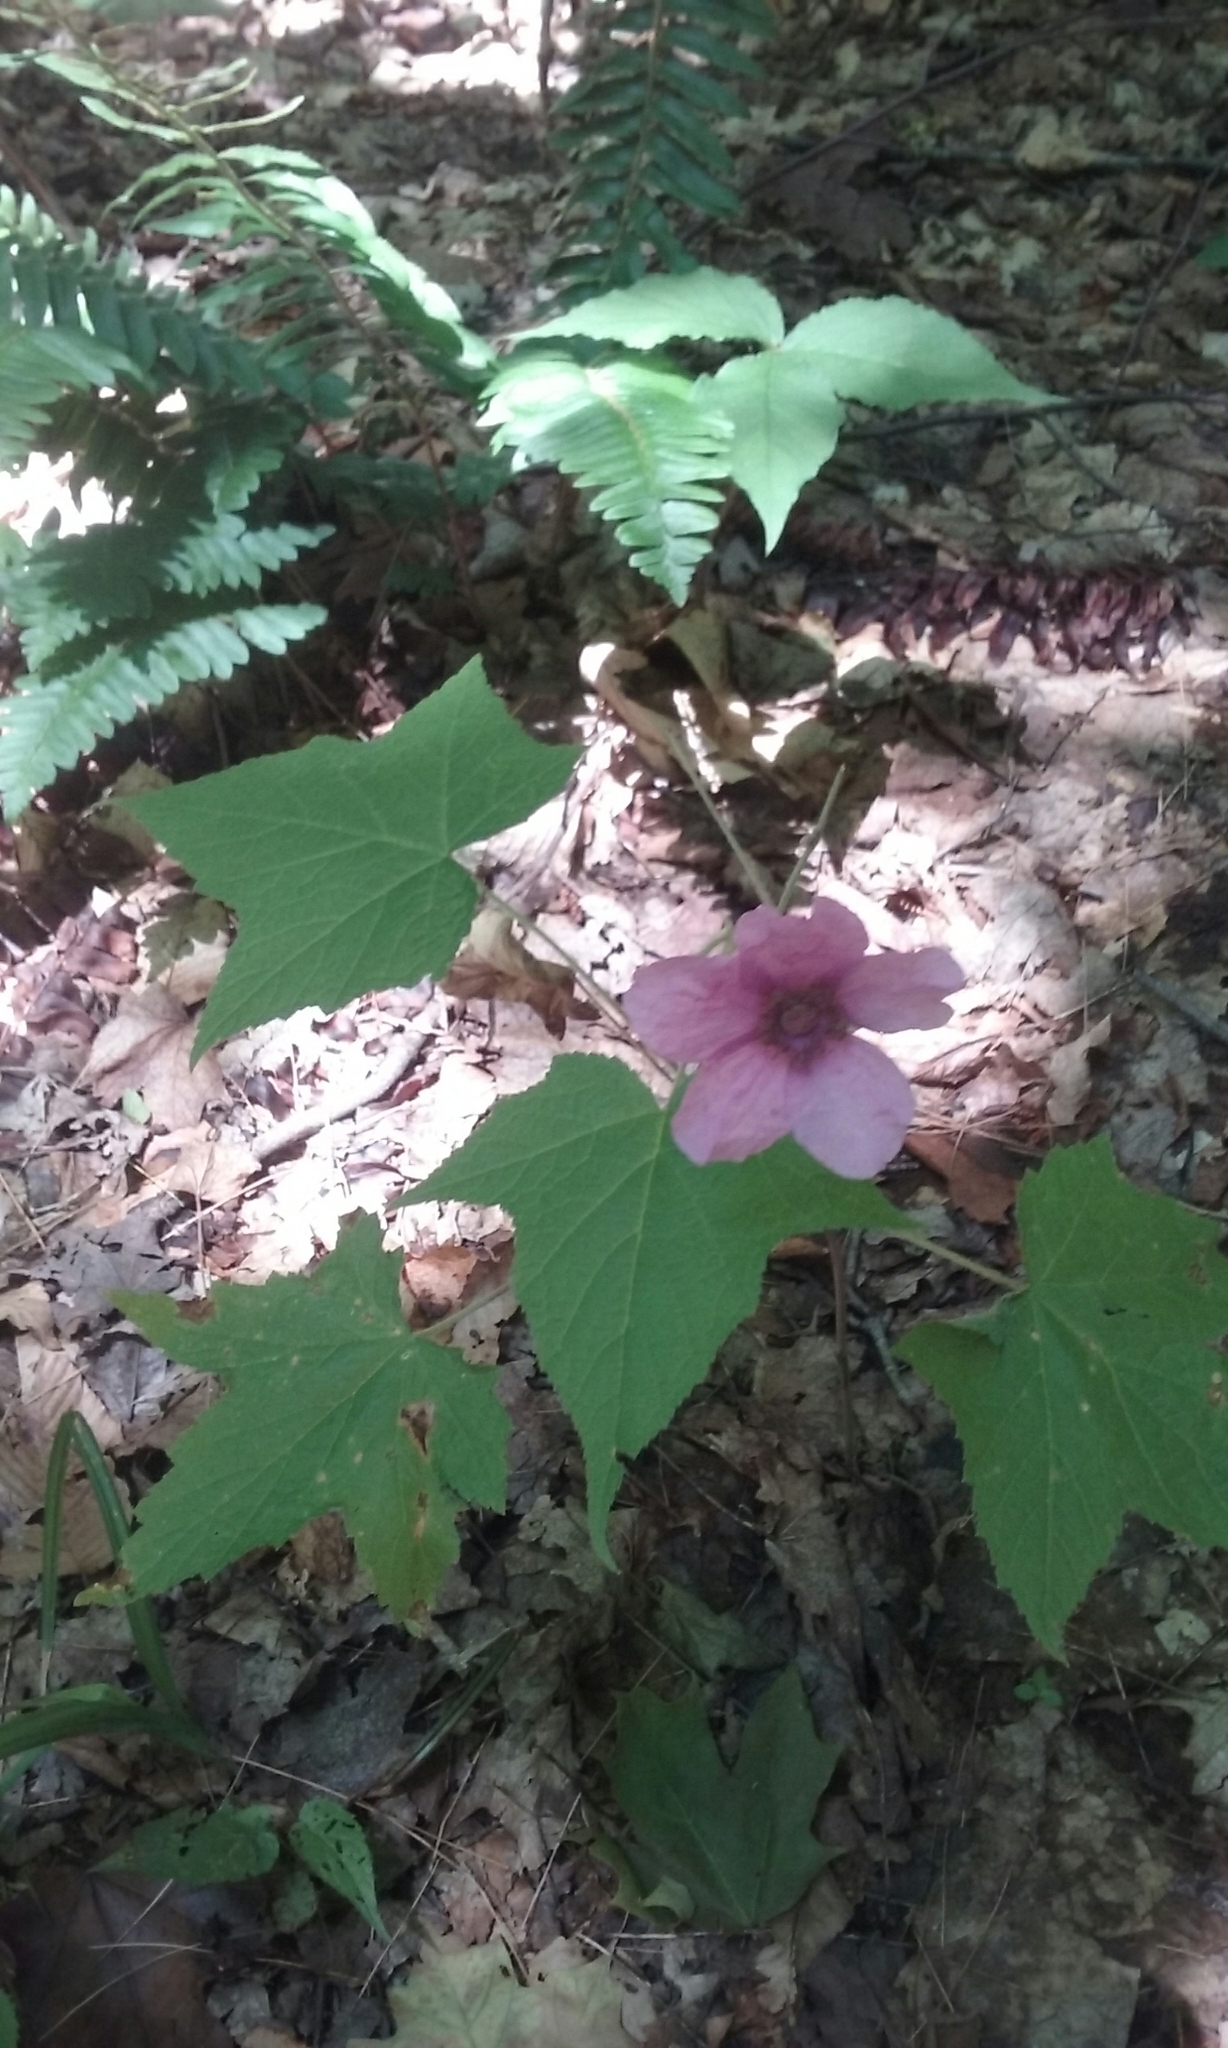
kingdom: Plantae
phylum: Tracheophyta
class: Magnoliopsida
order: Rosales
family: Rosaceae
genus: Rubus
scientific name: Rubus odoratus
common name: Purple-flowered raspberry
